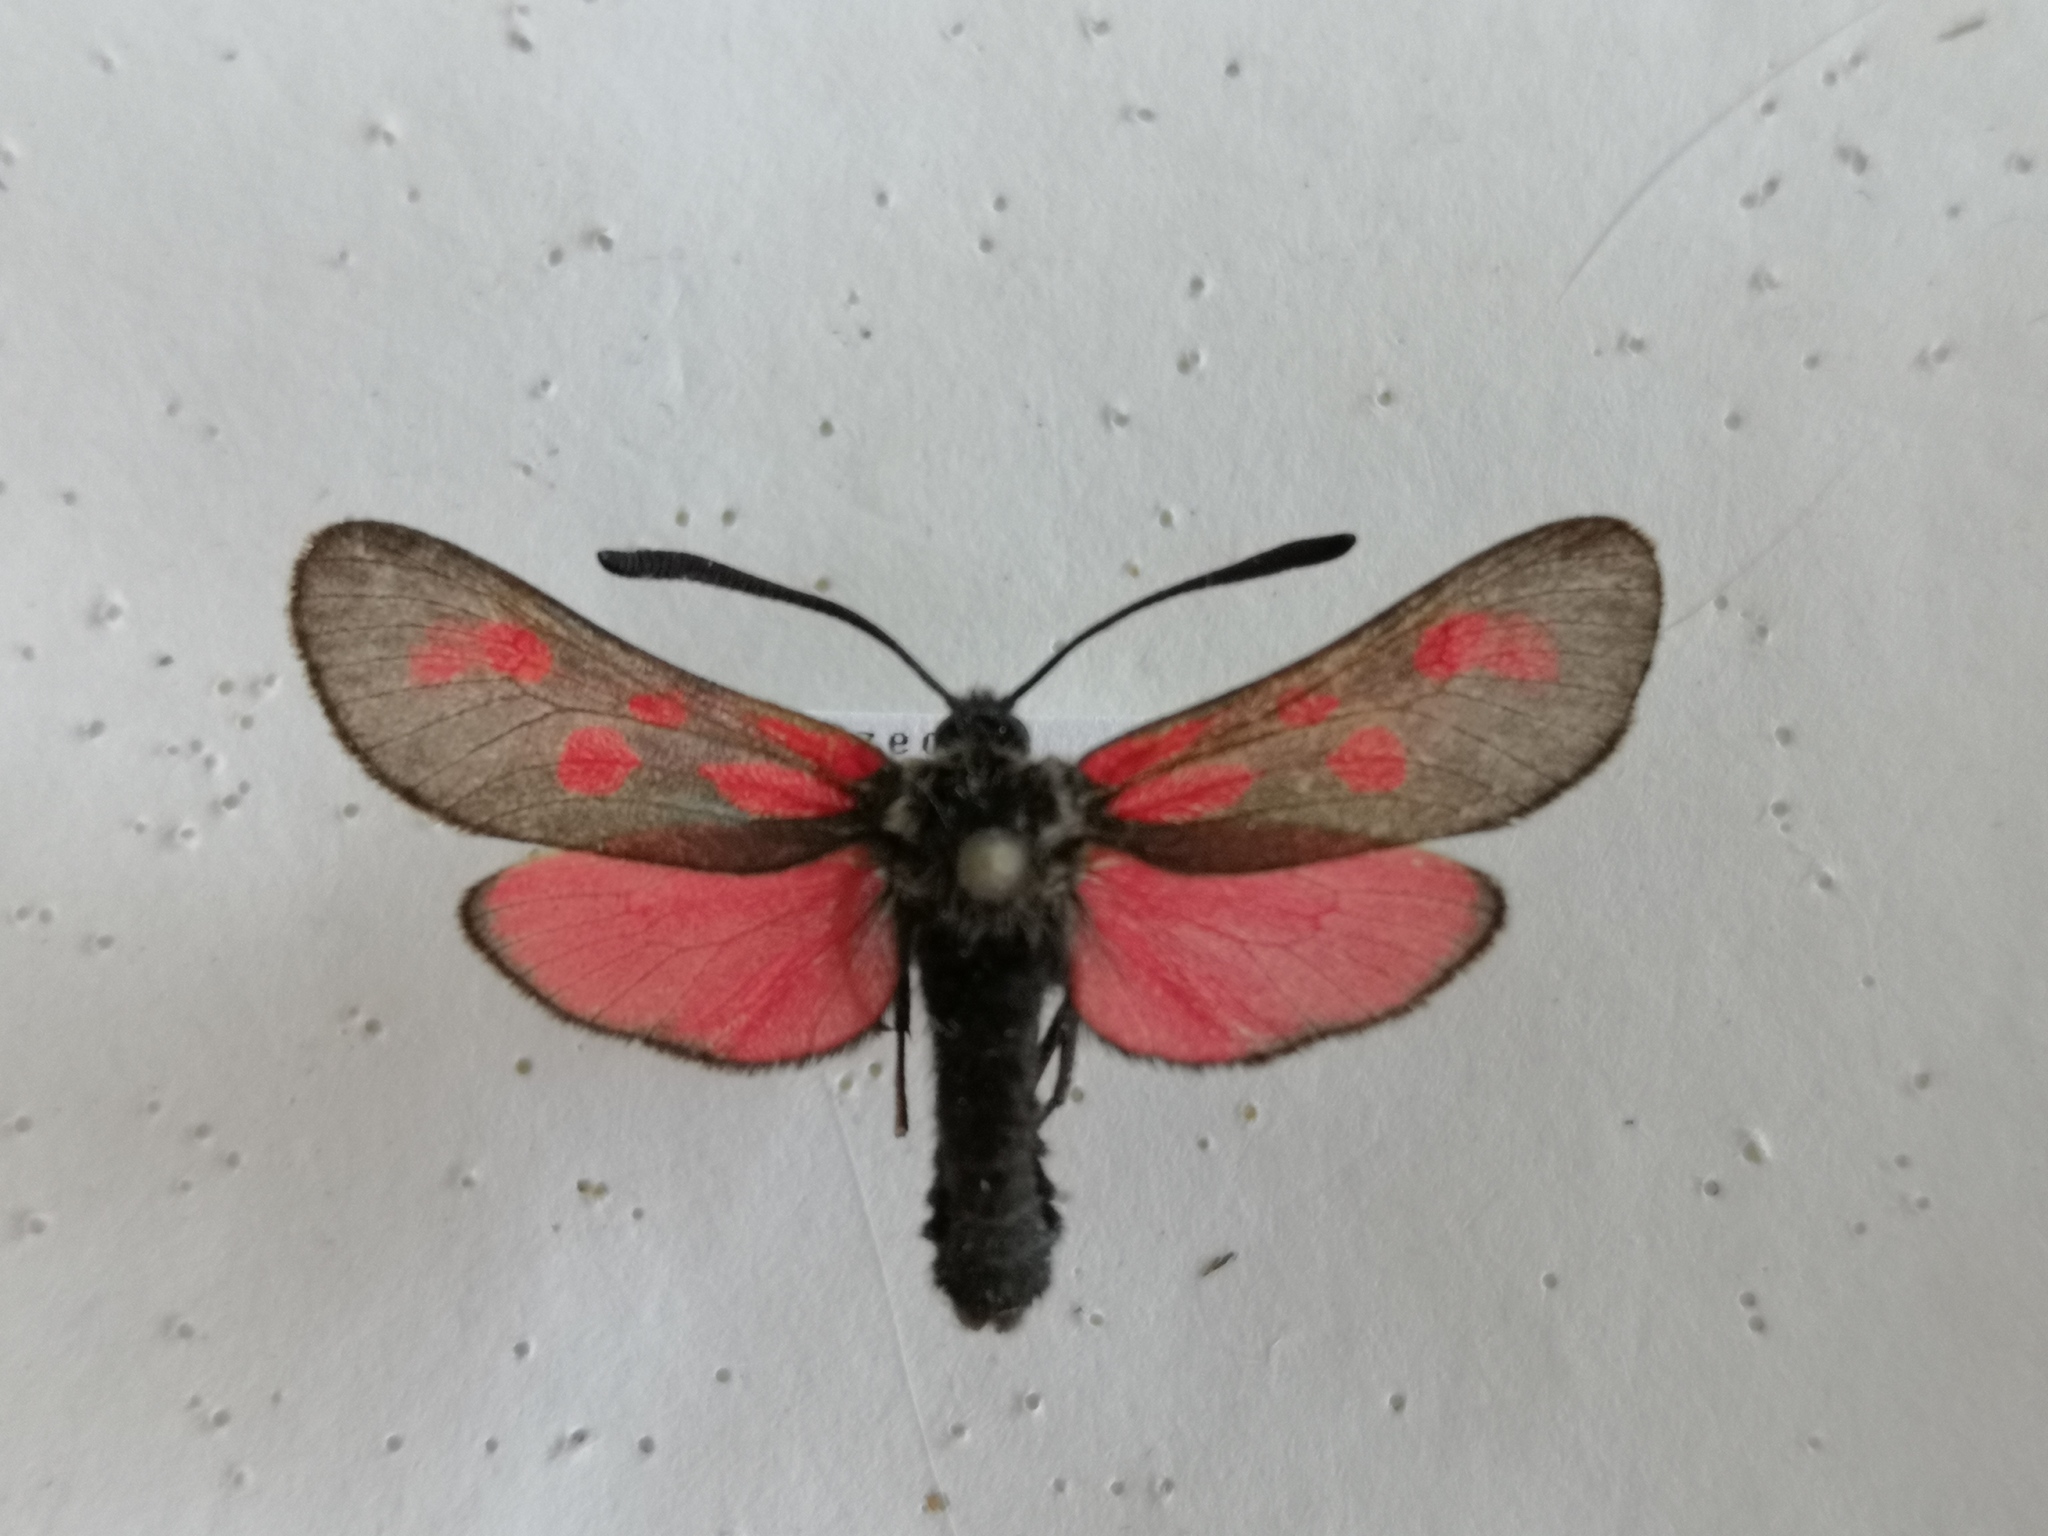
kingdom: Animalia
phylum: Arthropoda
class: Insecta
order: Lepidoptera
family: Zygaenidae
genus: Zygaena
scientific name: Zygaena loti
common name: Slender scotch burnet
